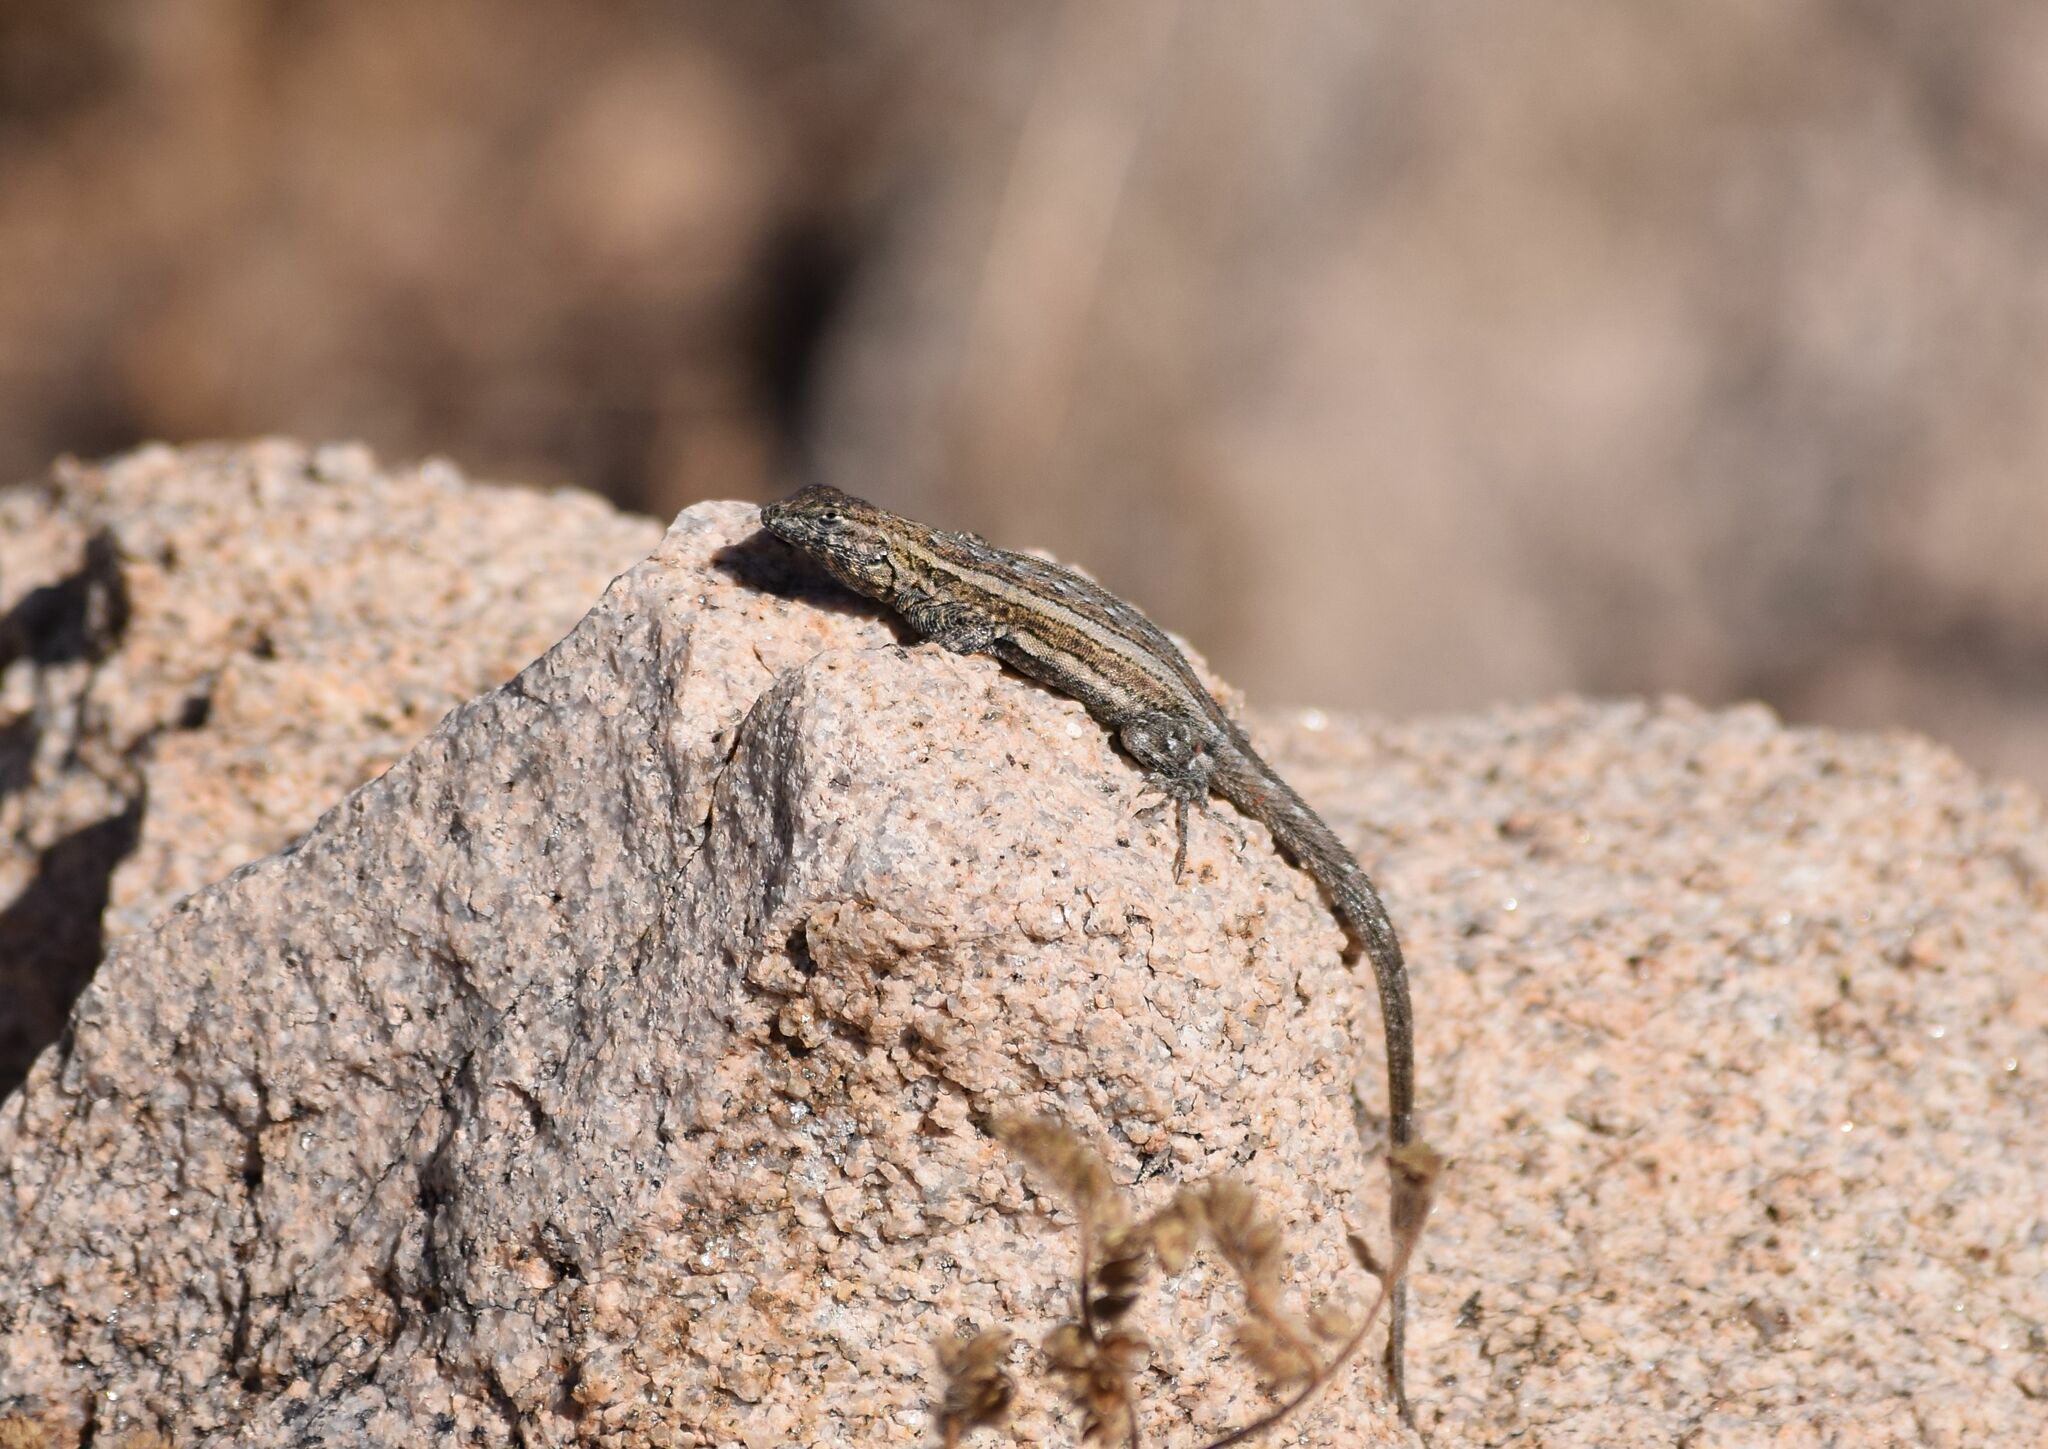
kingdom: Animalia
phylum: Chordata
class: Squamata
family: Phrynosomatidae
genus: Uta
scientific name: Uta stansburiana
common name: Side-blotched lizard
